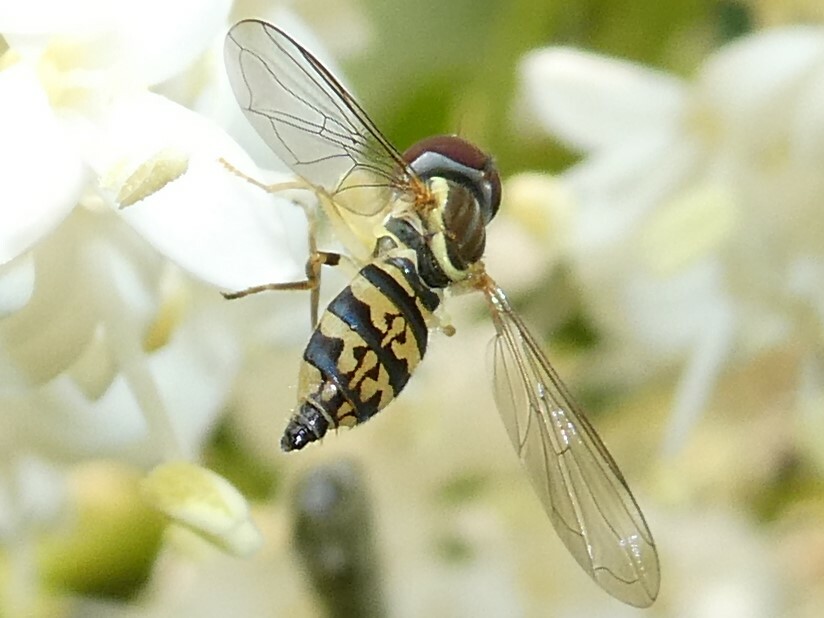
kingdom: Animalia
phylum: Arthropoda
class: Insecta
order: Diptera
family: Syrphidae
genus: Toxomerus
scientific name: Toxomerus geminatus
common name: Eastern calligrapher
